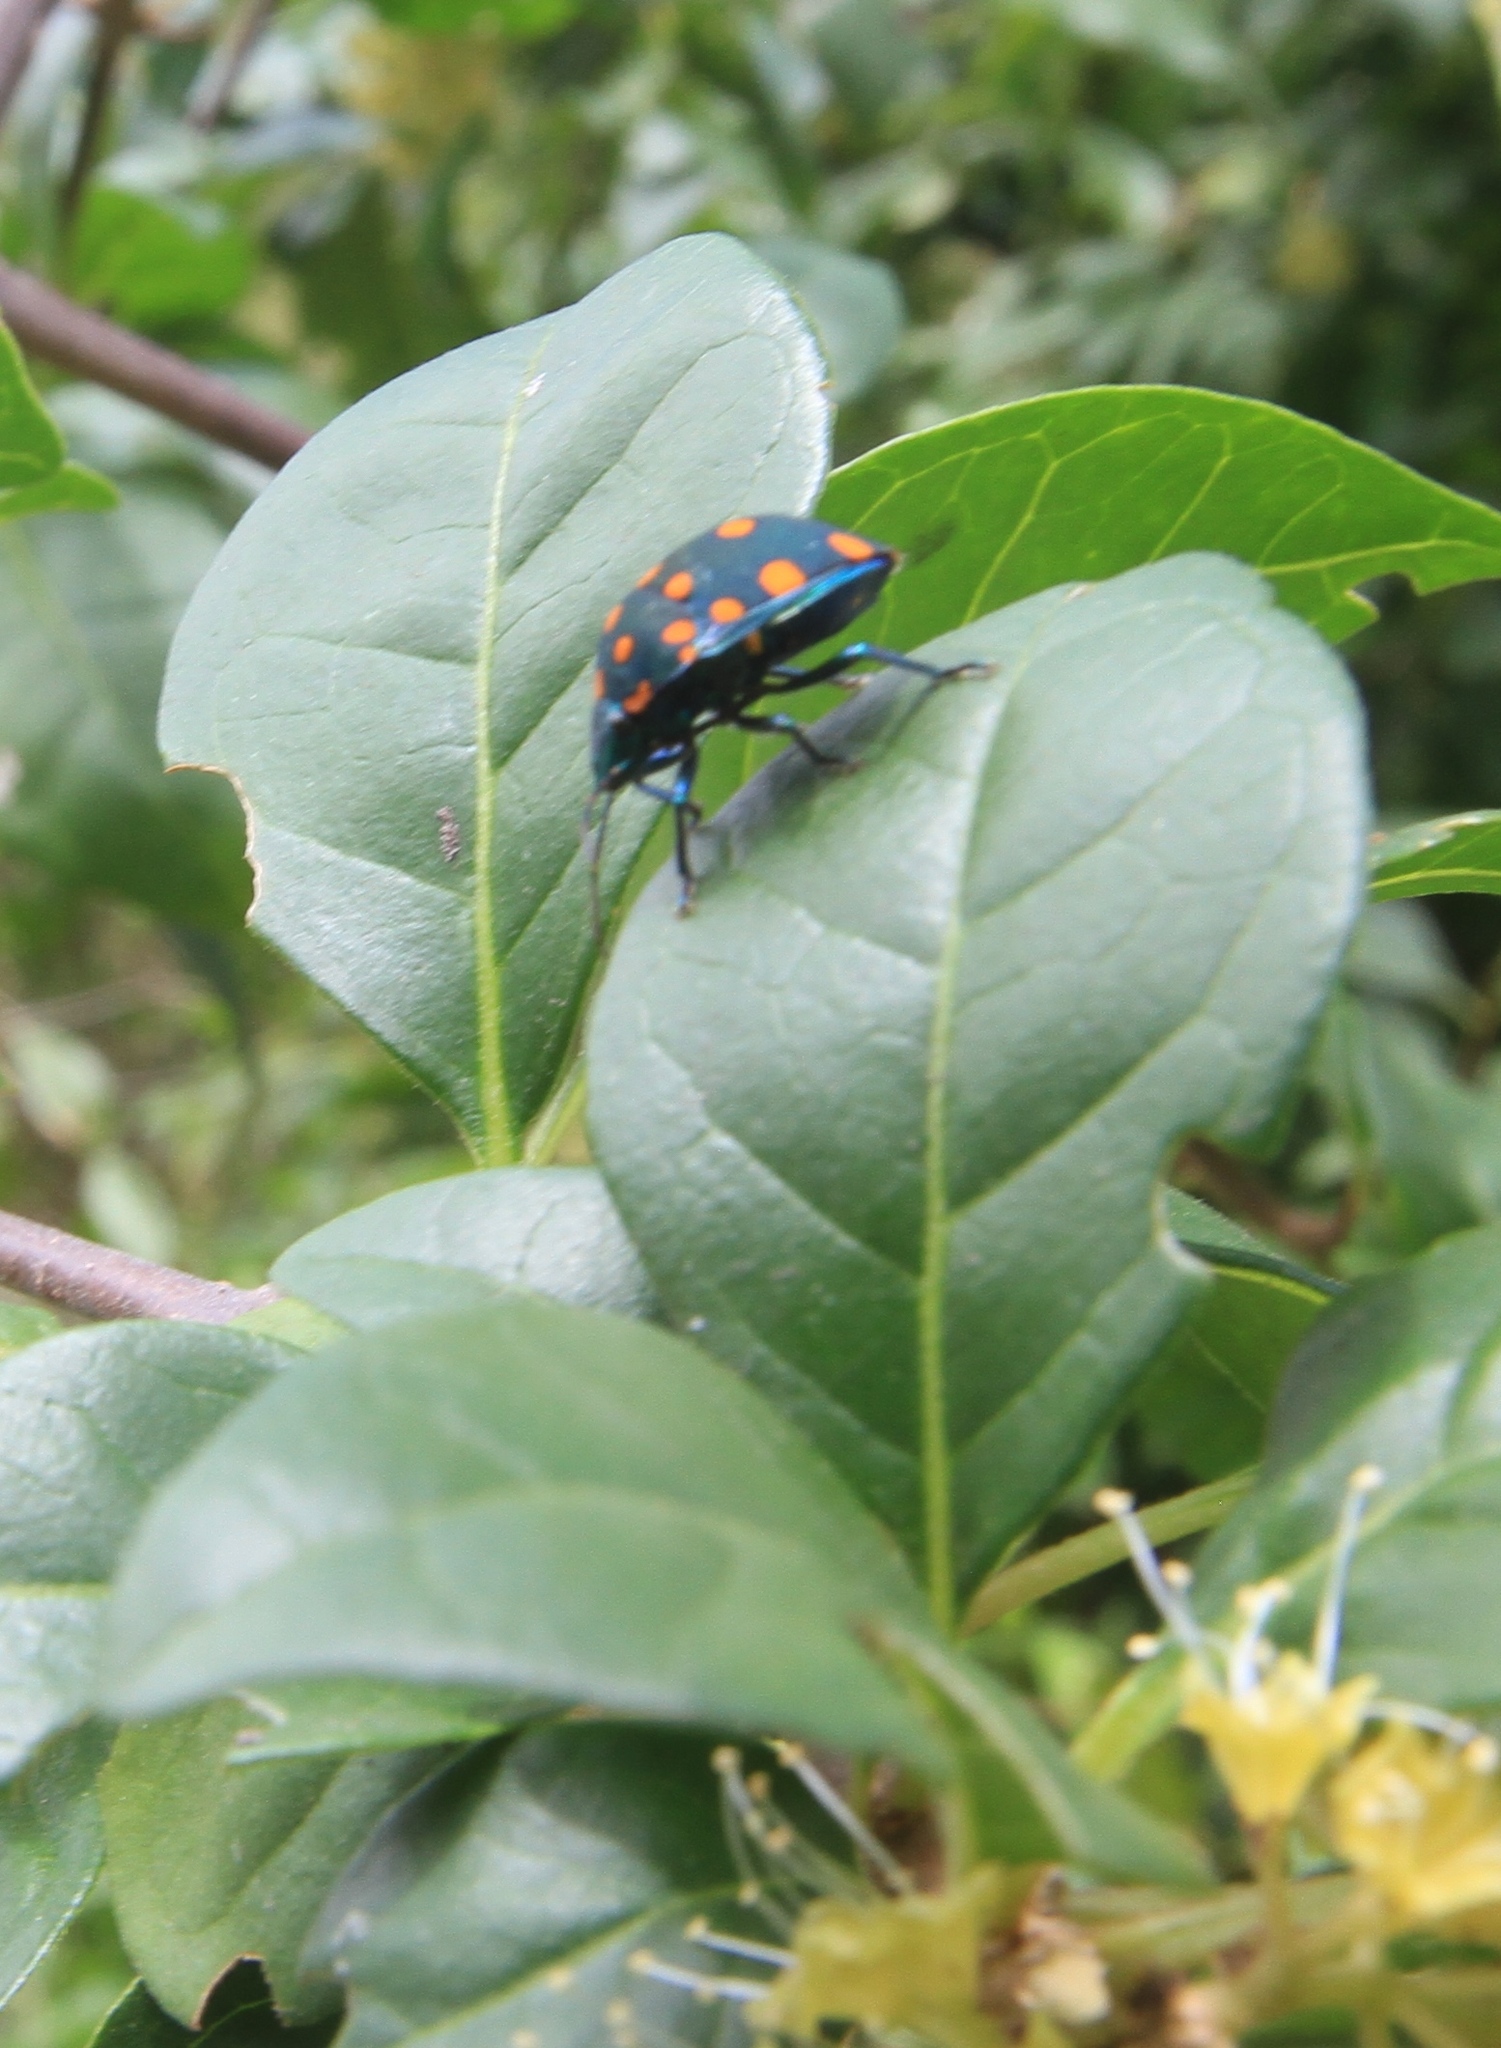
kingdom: Animalia
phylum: Arthropoda
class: Insecta
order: Hemiptera
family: Scutelleridae
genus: Pachycoris
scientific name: Pachycoris fabricii
